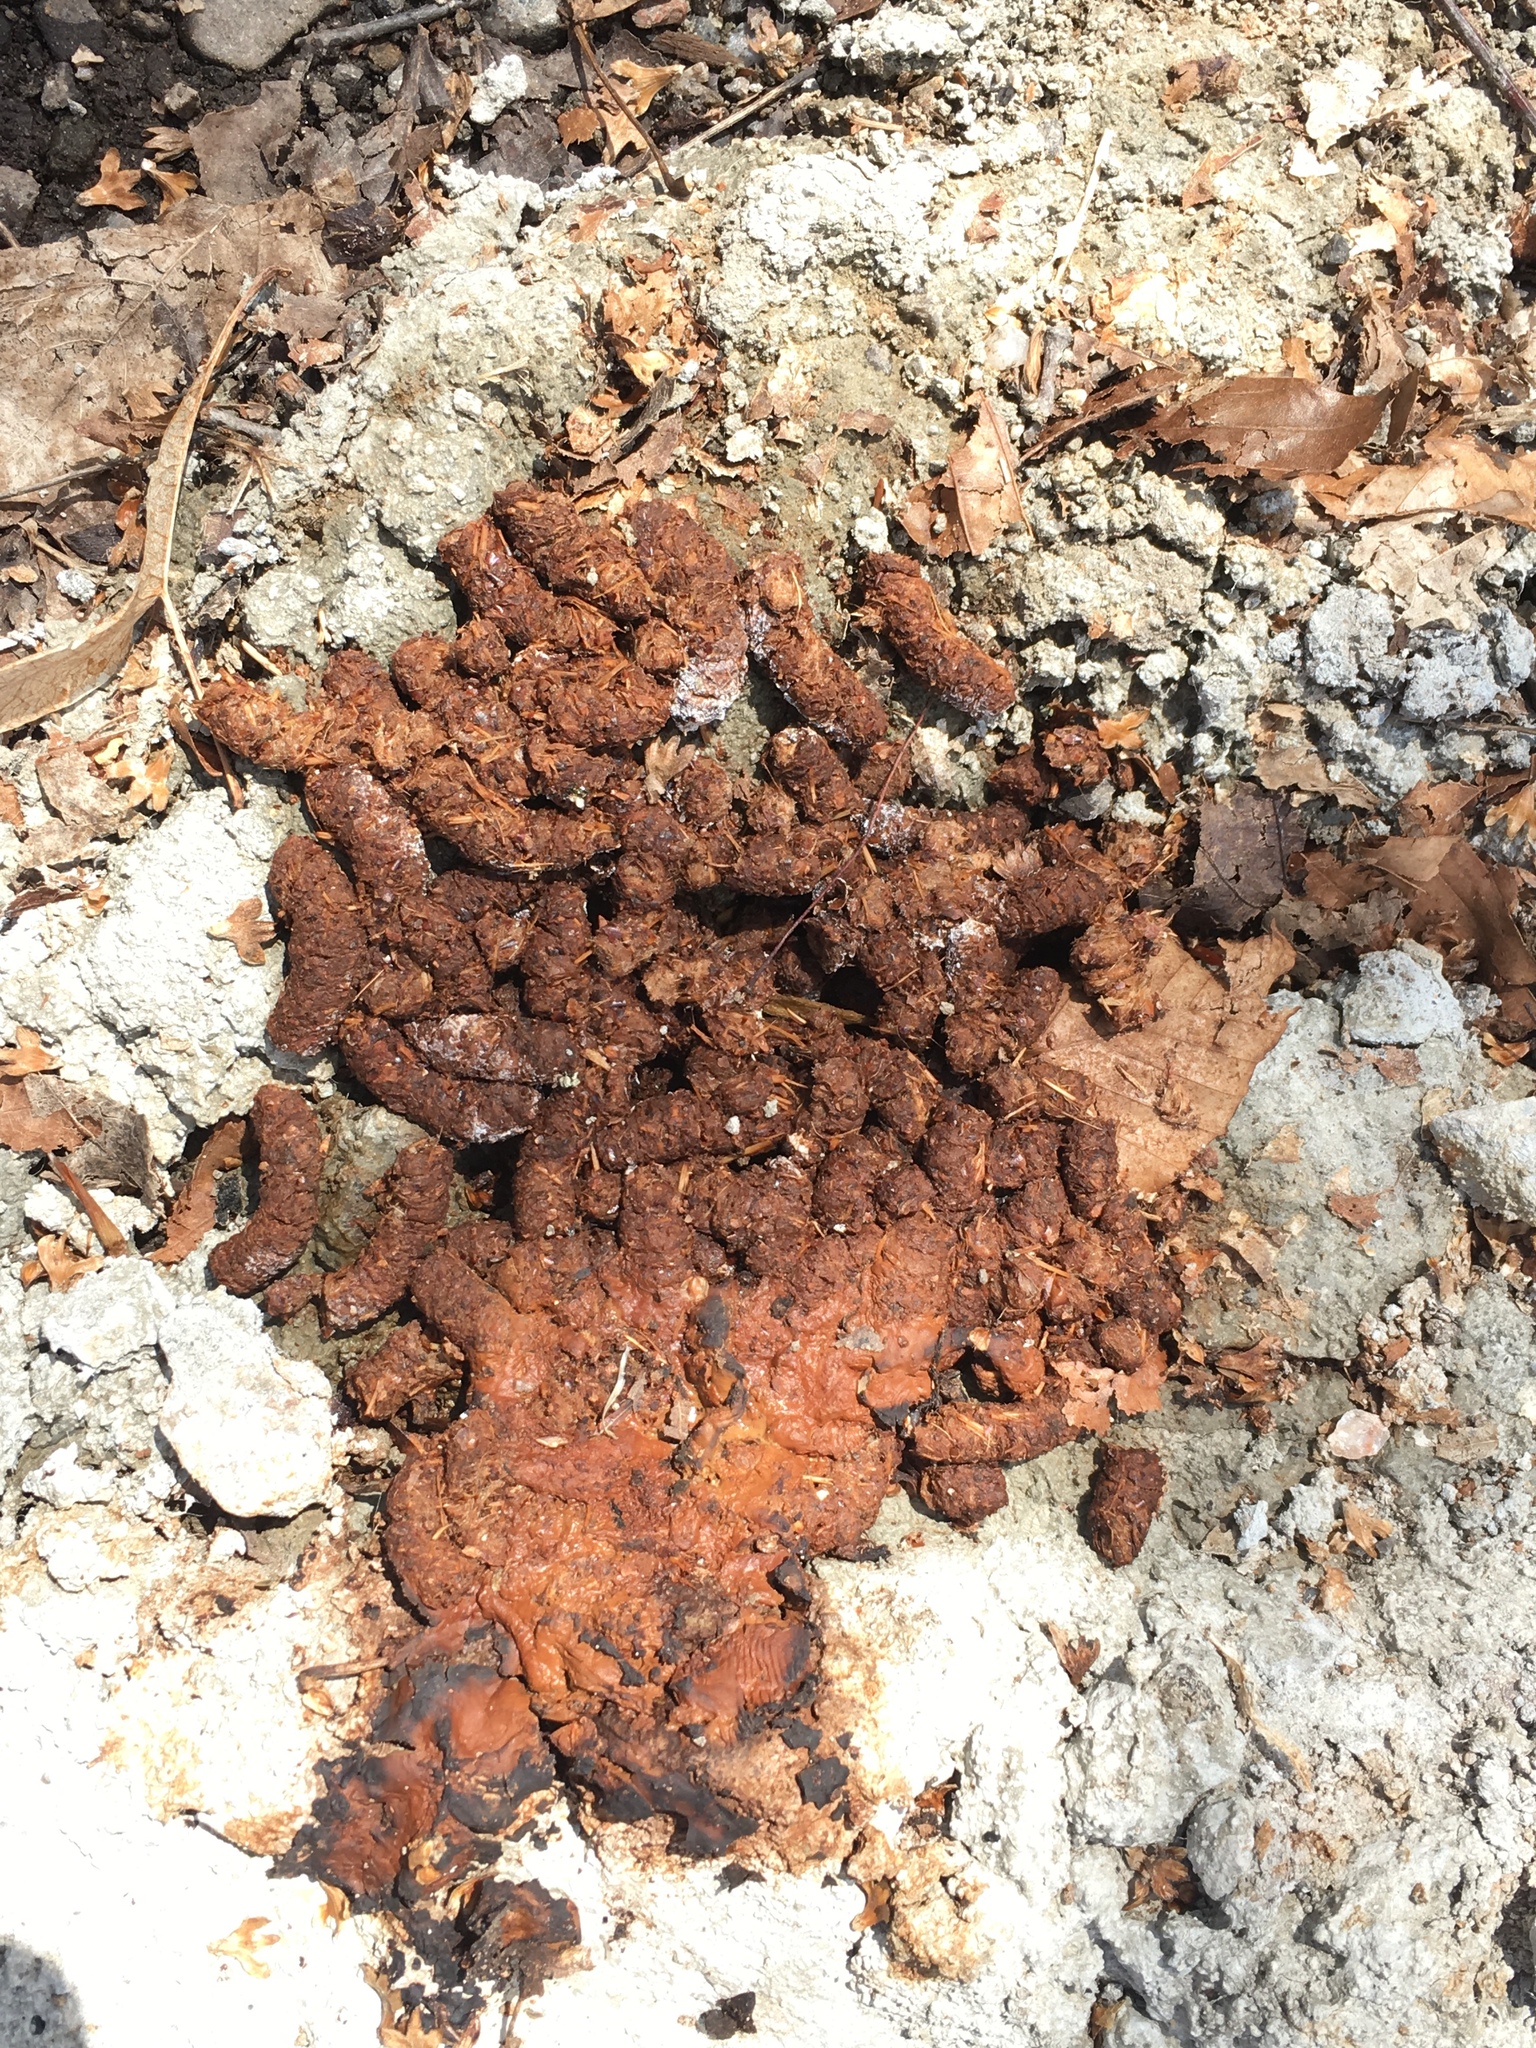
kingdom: Animalia
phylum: Chordata
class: Mammalia
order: Rodentia
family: Erethizontidae
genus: Erethizon
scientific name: Erethizon dorsatus
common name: North american porcupine
